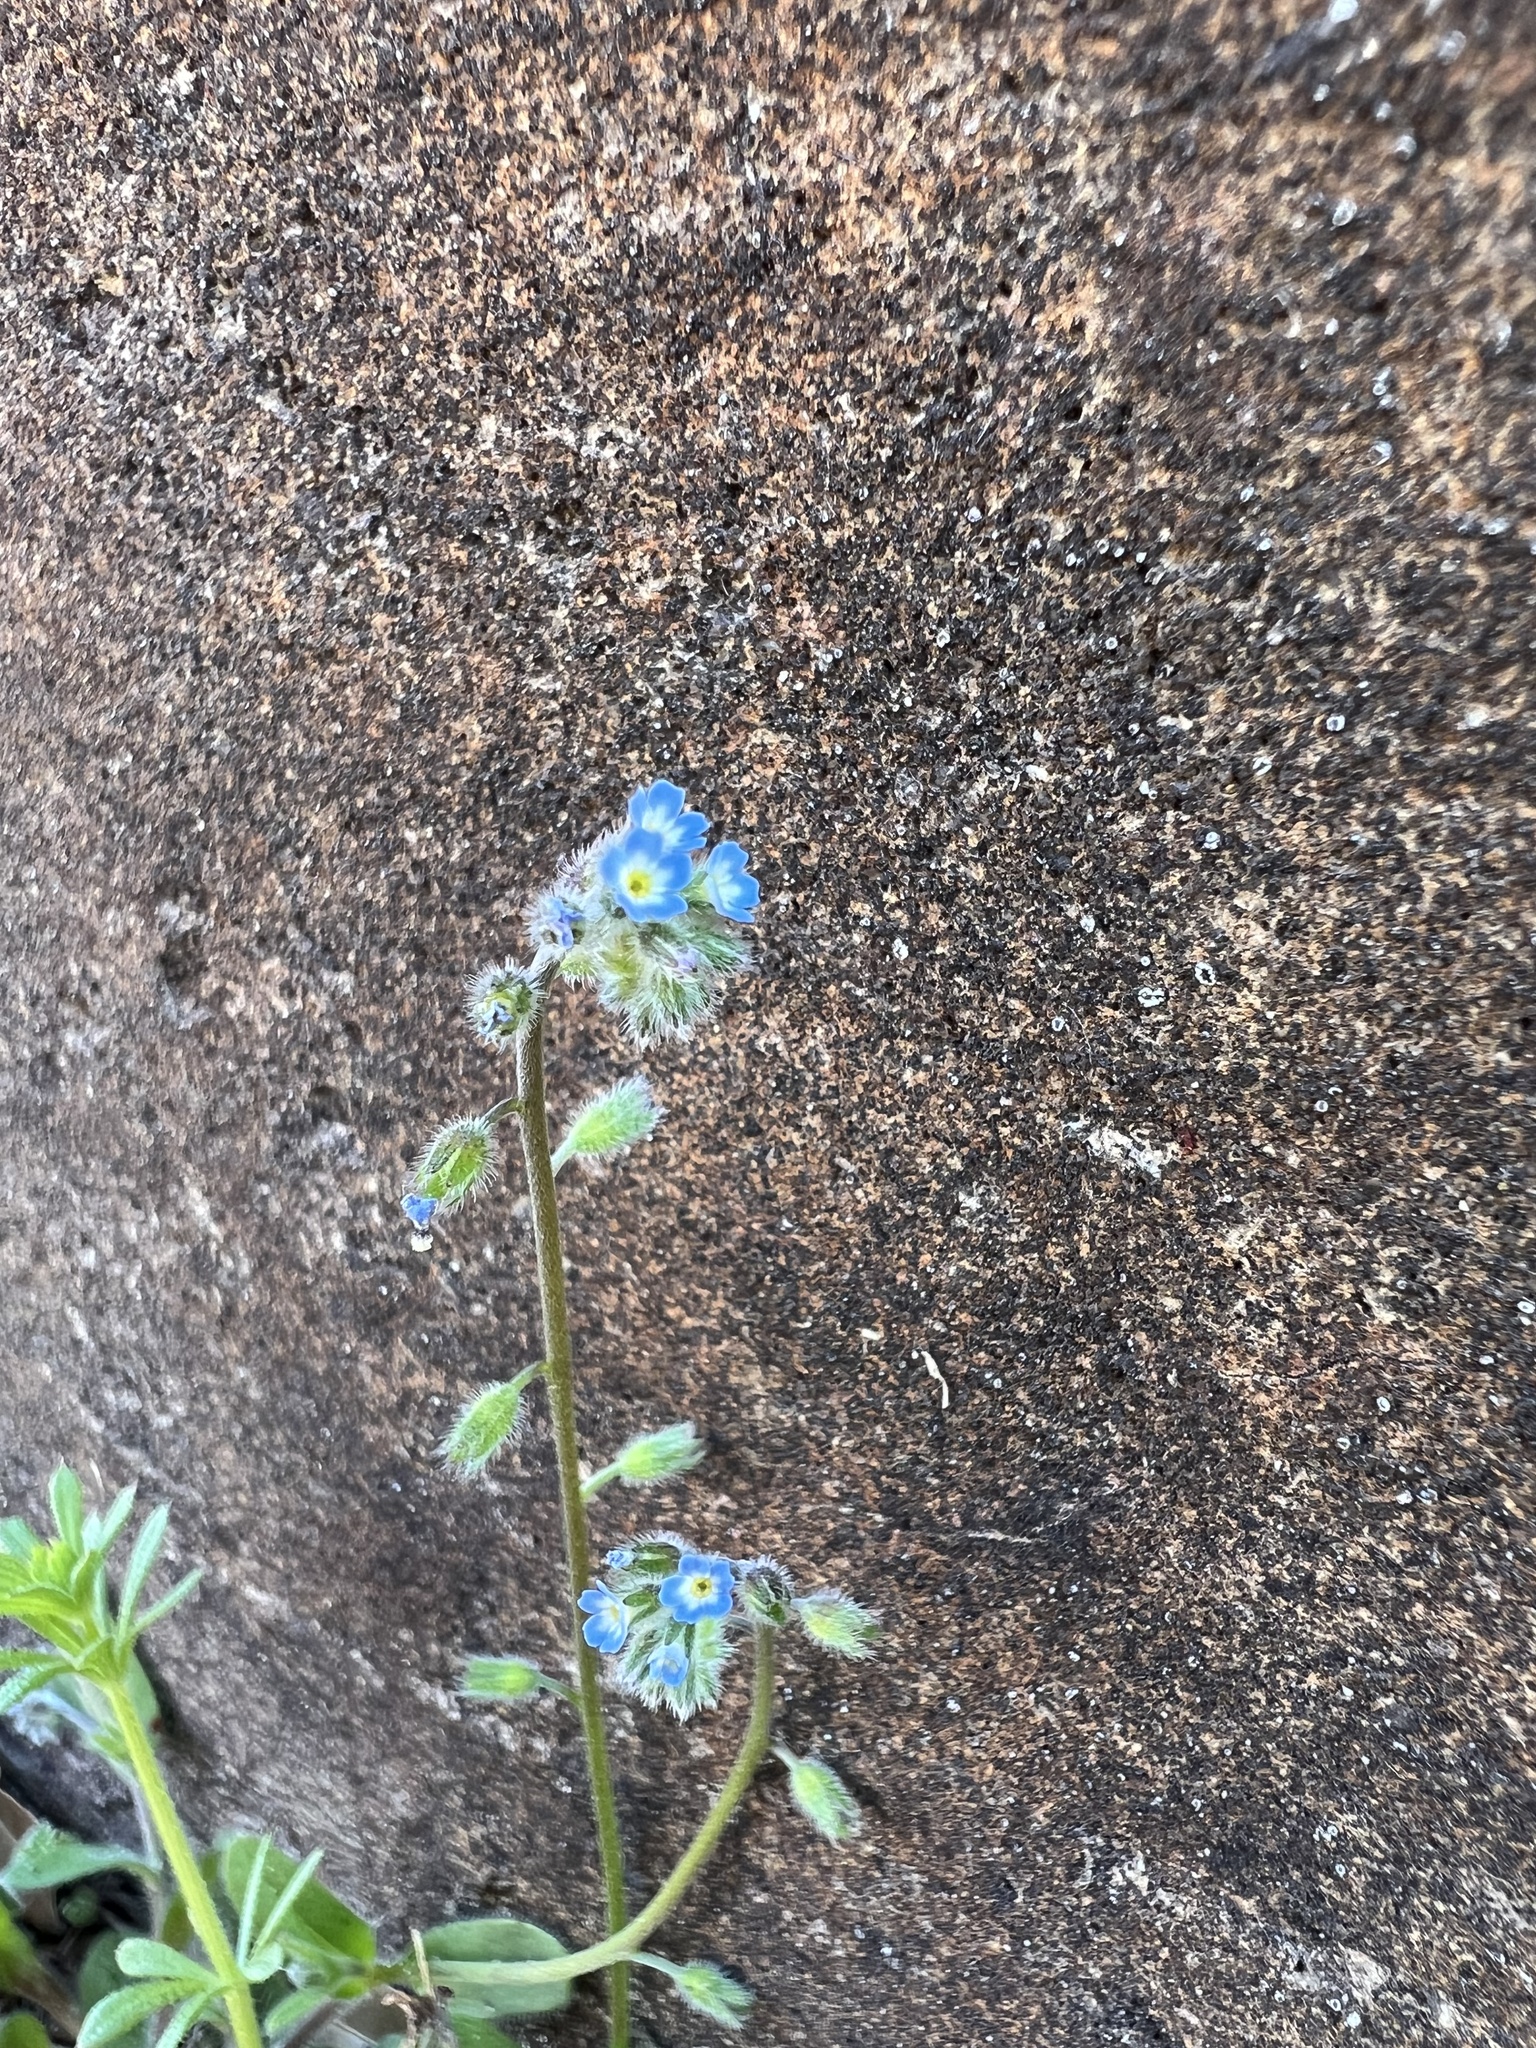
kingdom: Plantae
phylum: Tracheophyta
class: Magnoliopsida
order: Boraginales
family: Boraginaceae
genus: Myosotis
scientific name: Myosotis ramosissima
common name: Early forget-me-not
